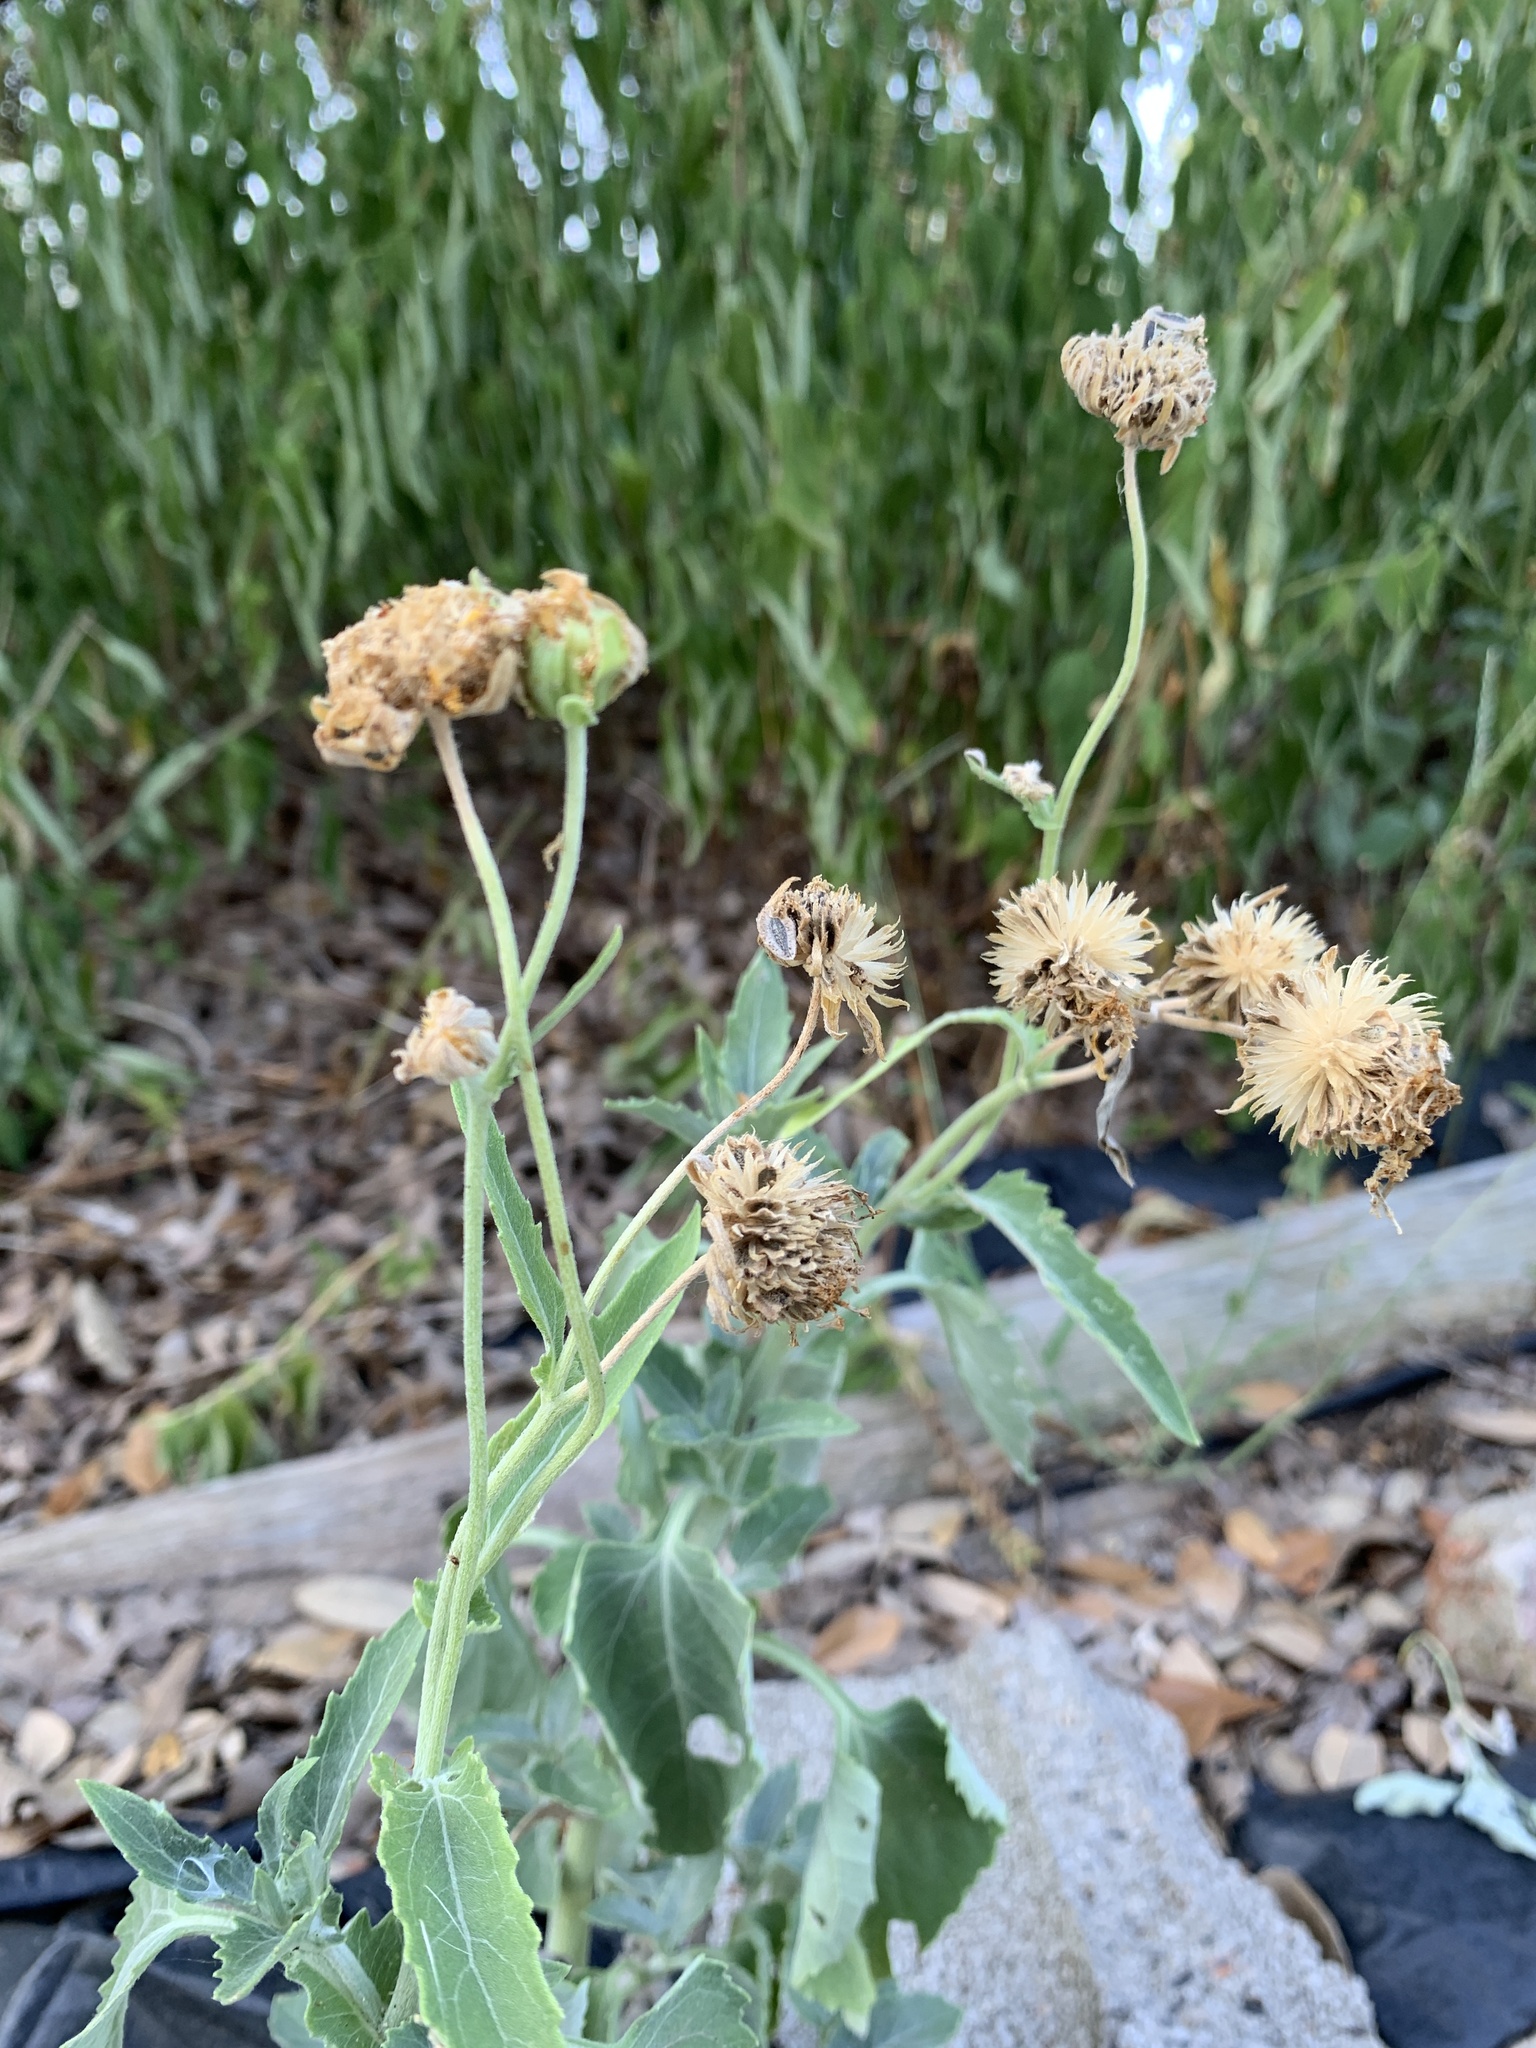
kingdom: Plantae
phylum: Tracheophyta
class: Magnoliopsida
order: Asterales
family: Asteraceae
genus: Verbesina
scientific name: Verbesina encelioides
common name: Golden crownbeard
